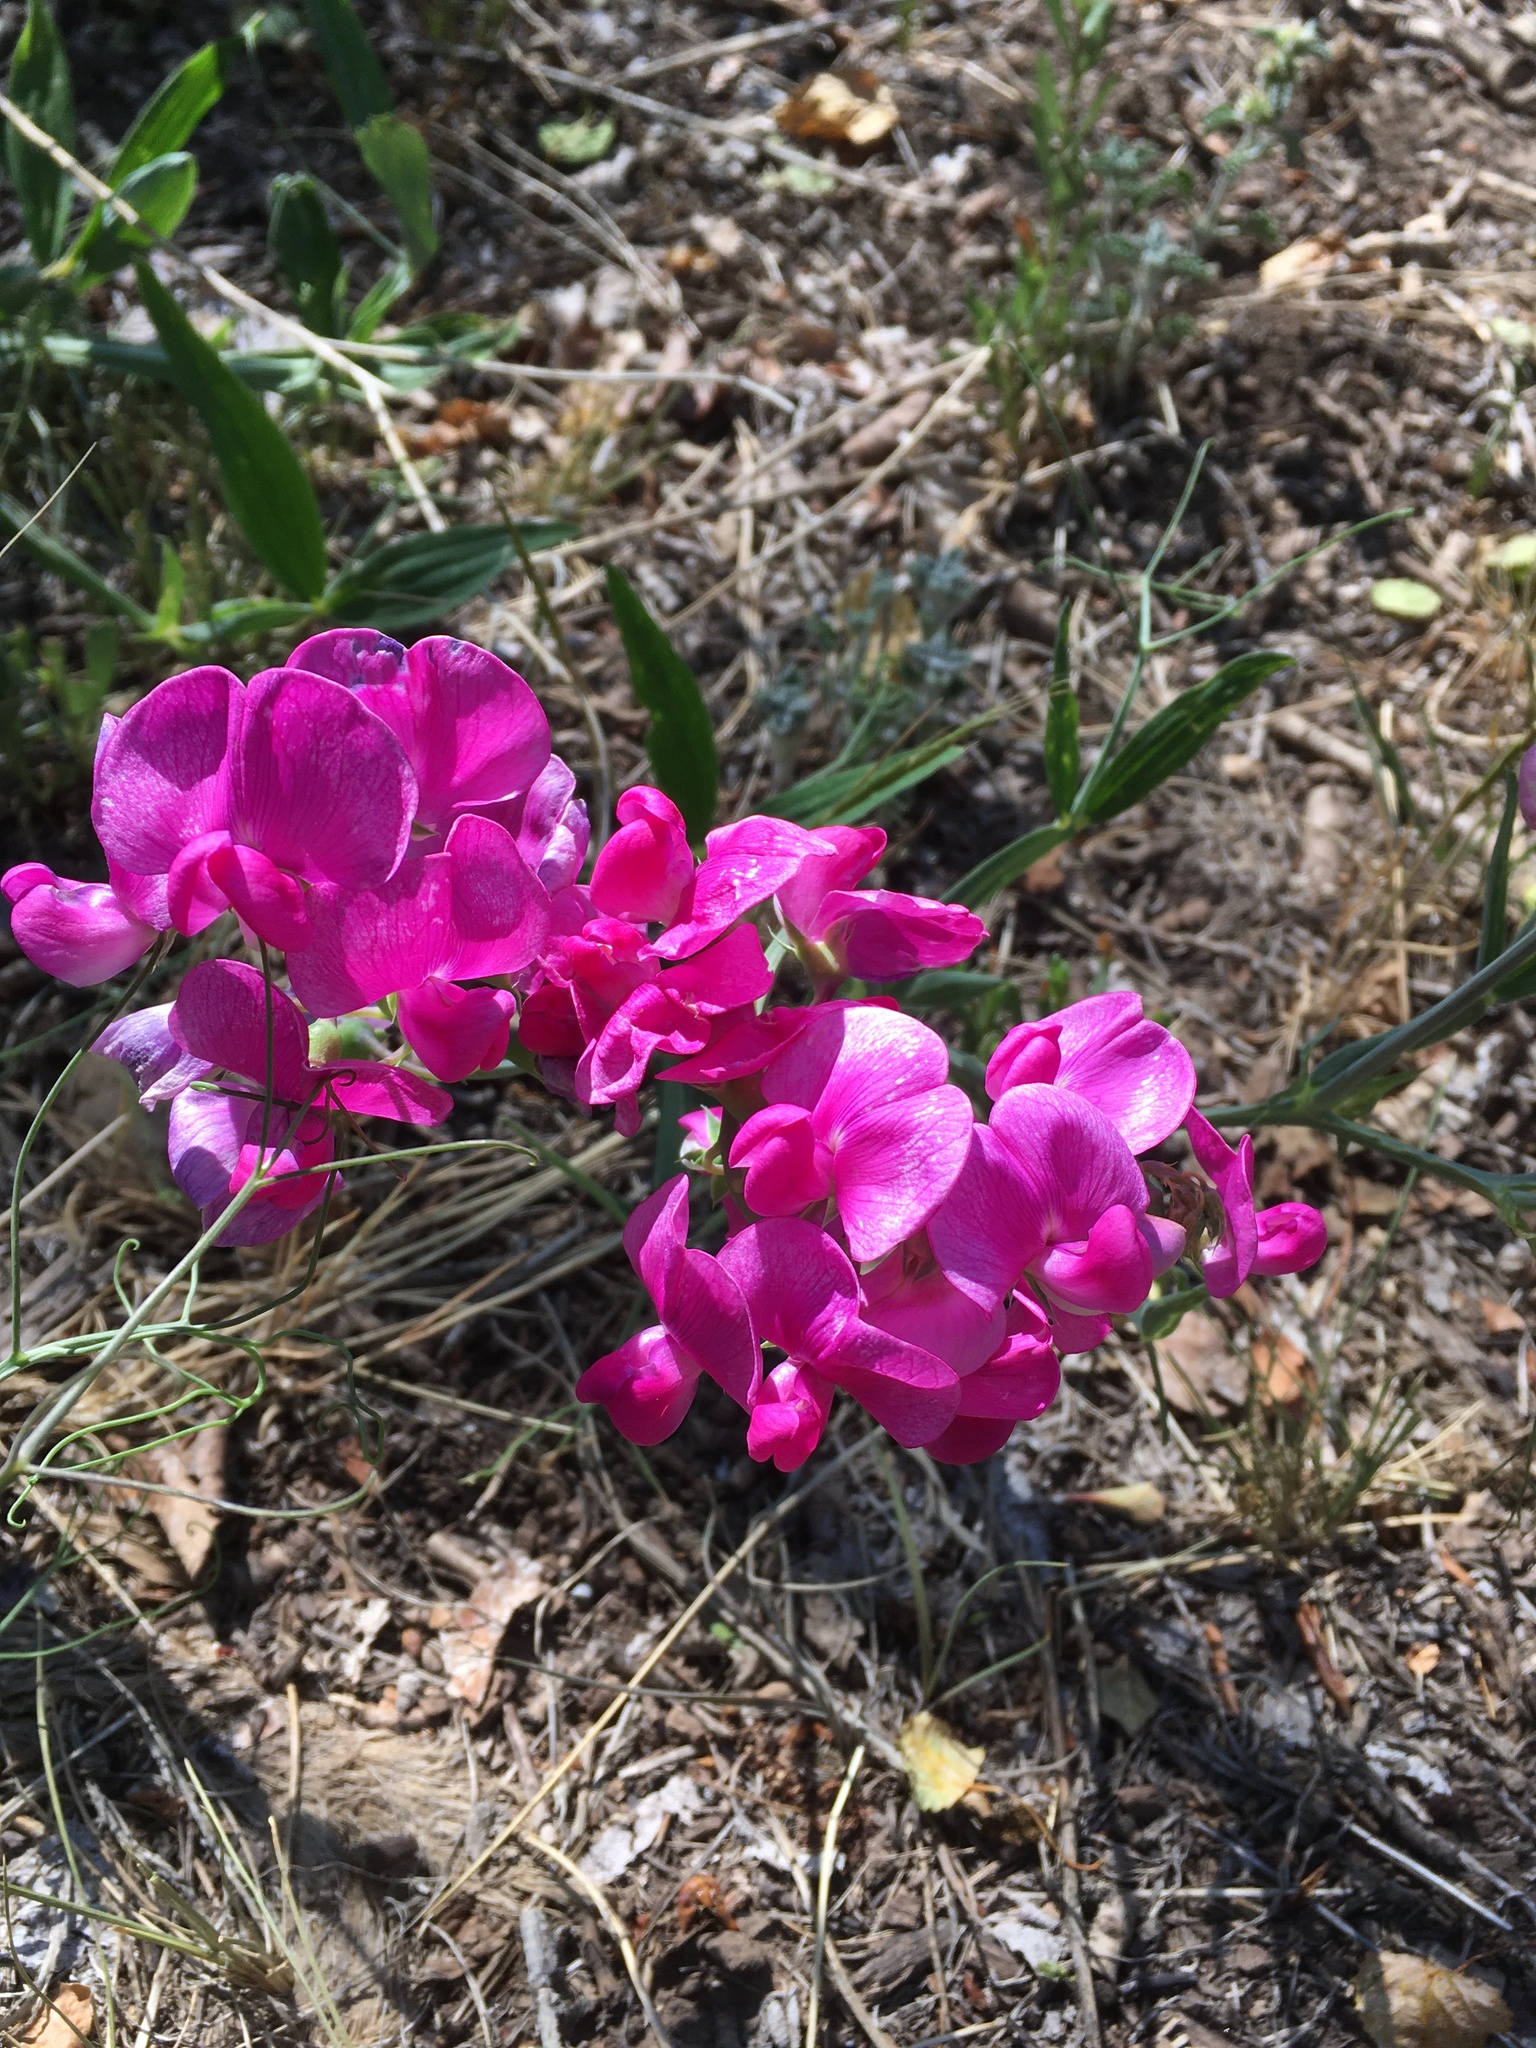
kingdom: Plantae
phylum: Tracheophyta
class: Magnoliopsida
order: Fabales
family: Fabaceae
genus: Lathyrus
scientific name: Lathyrus latifolius
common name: Perennial pea
